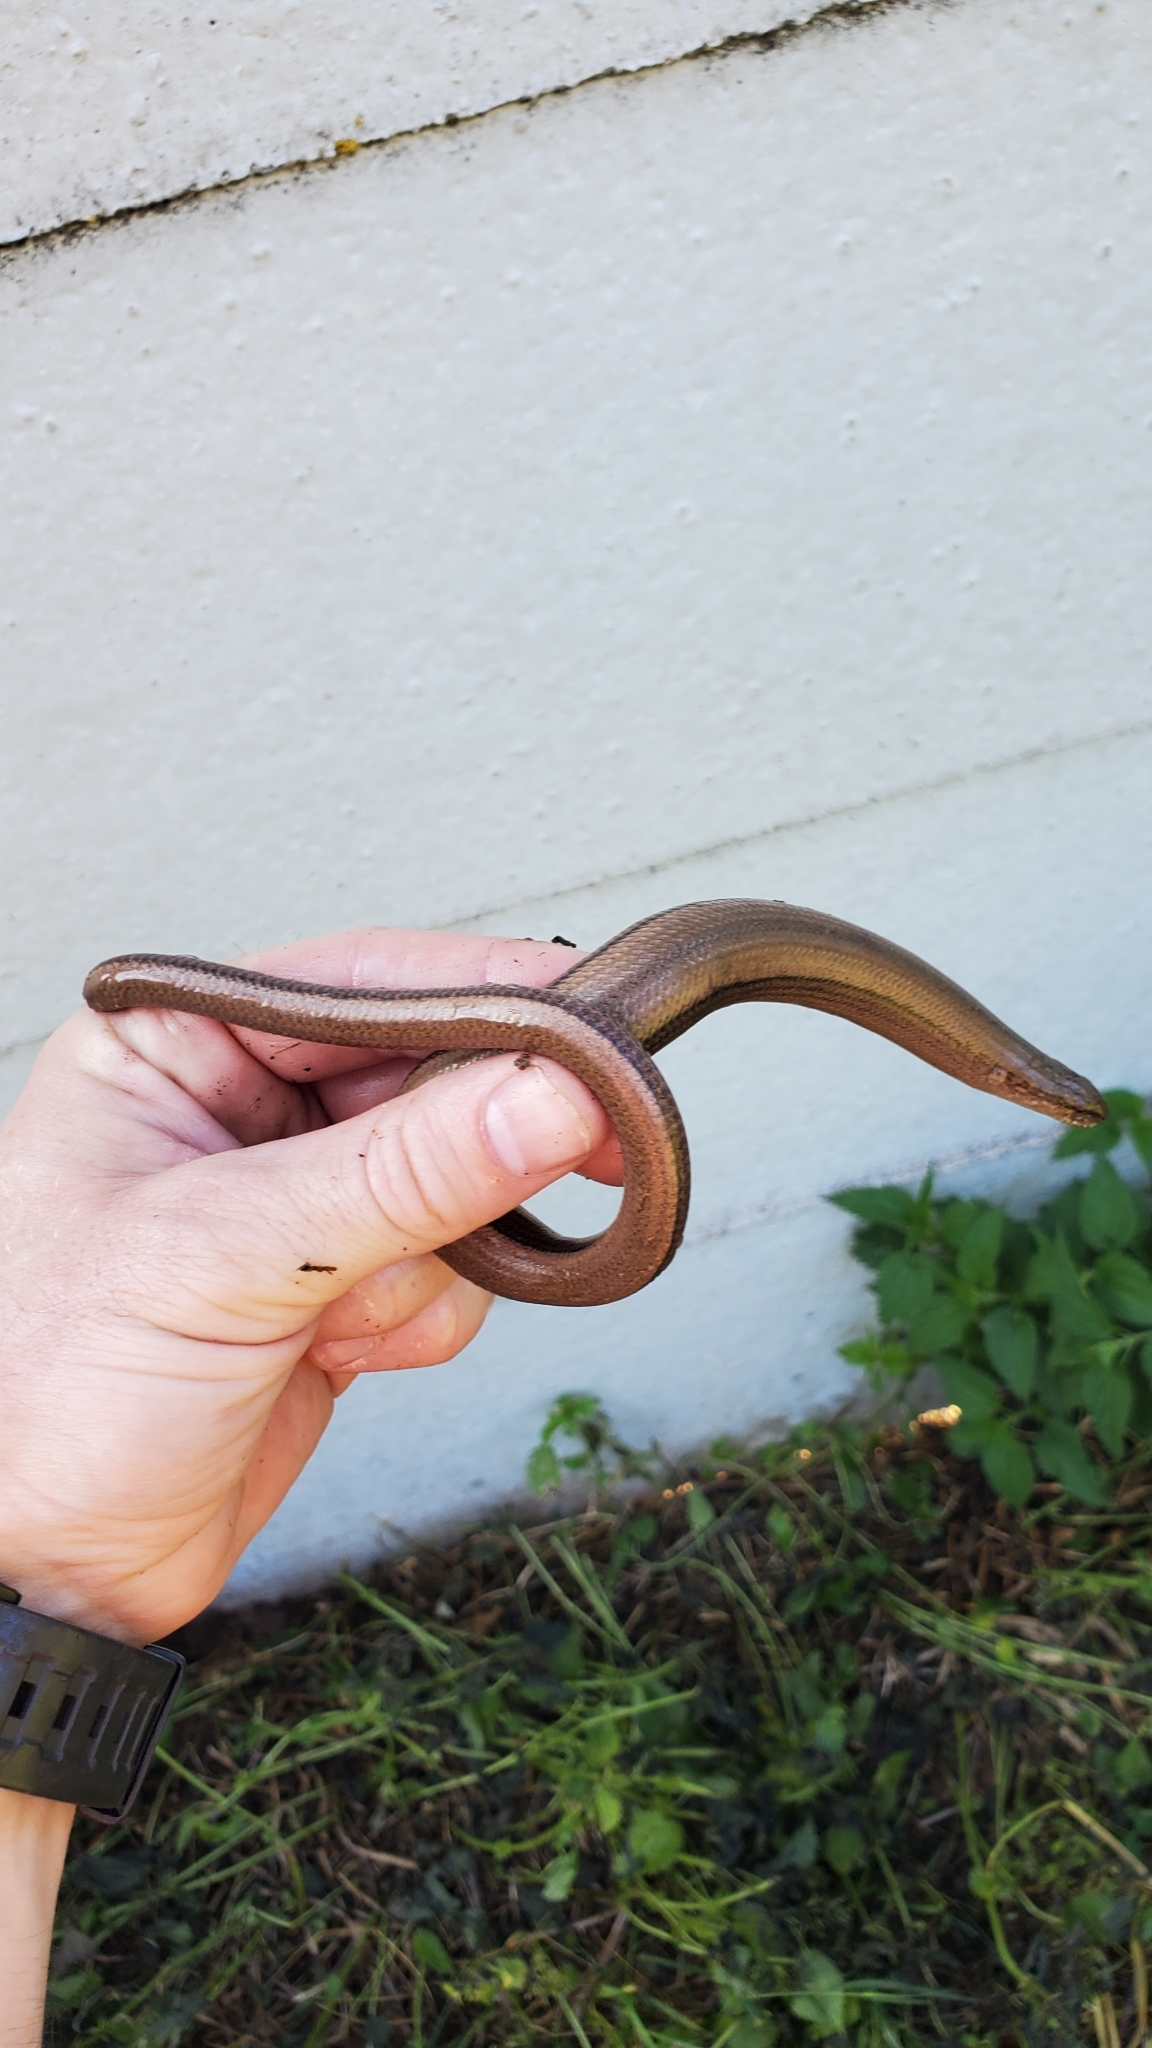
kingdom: Animalia
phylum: Chordata
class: Squamata
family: Anguidae
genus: Anguis
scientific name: Anguis fragilis
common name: Slow worm
